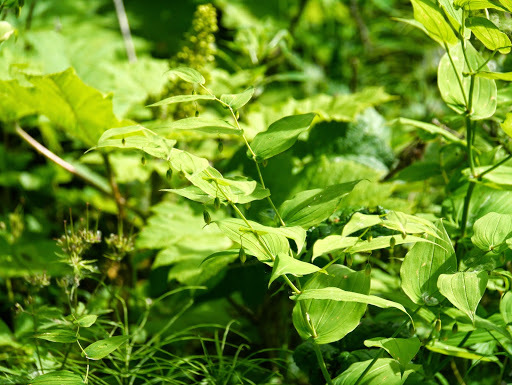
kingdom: Plantae
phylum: Tracheophyta
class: Liliopsida
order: Liliales
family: Liliaceae
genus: Streptopus
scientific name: Streptopus amplexifolius
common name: Clasp twisted stalk
